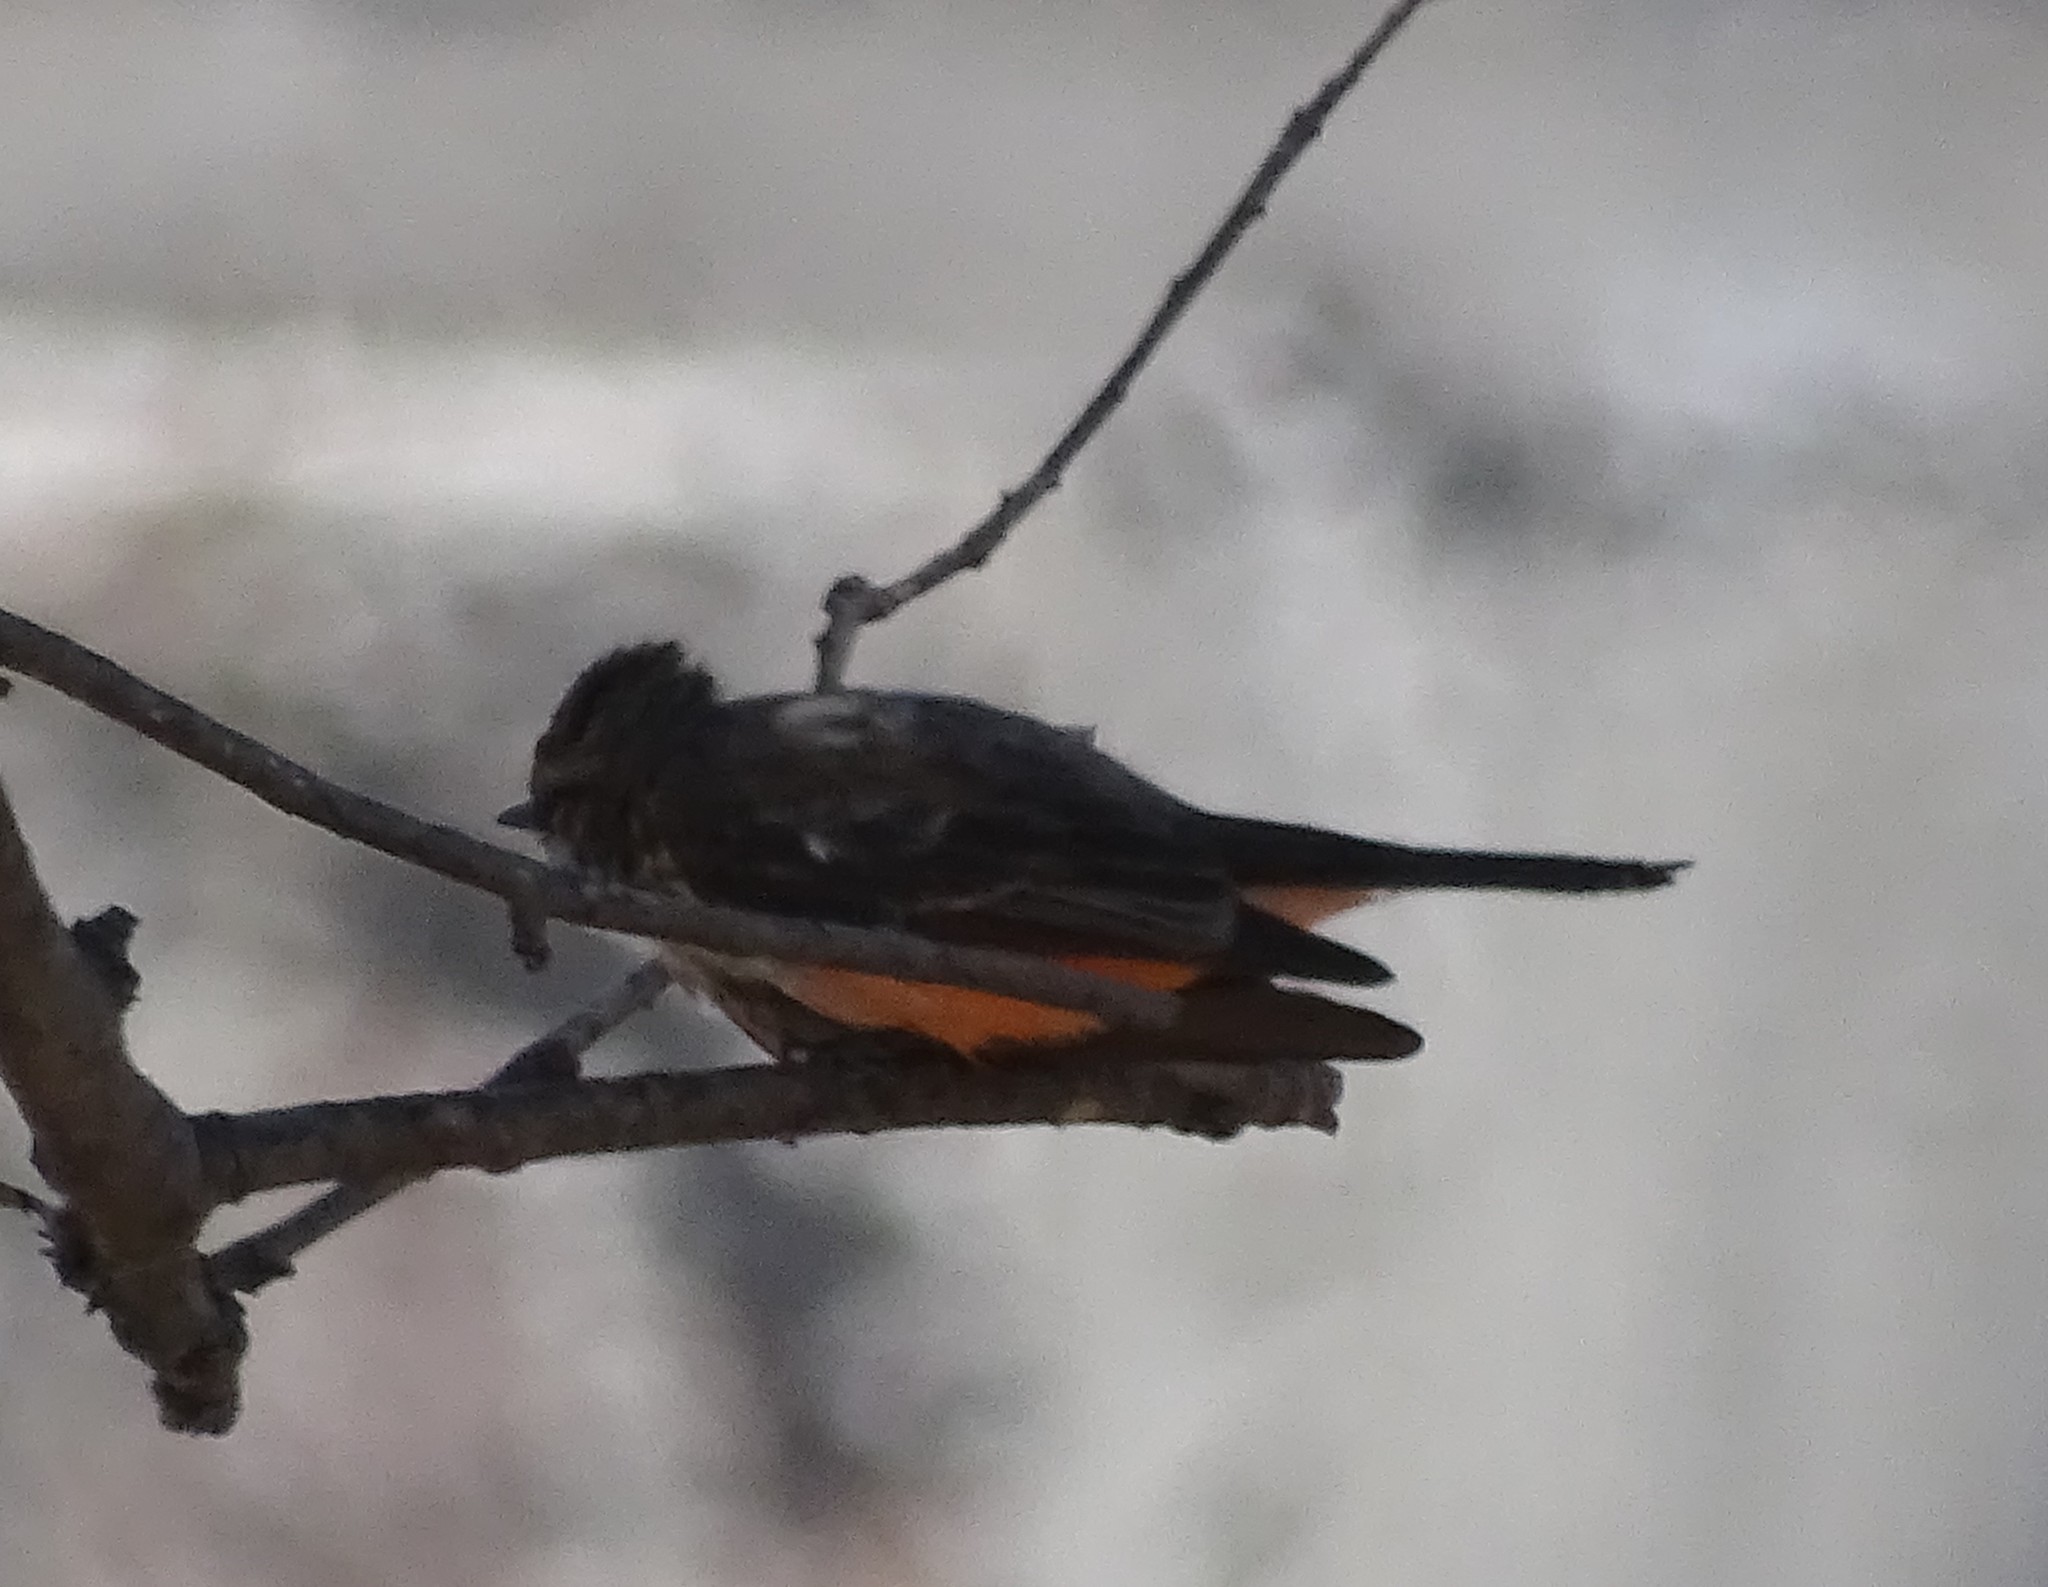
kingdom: Animalia
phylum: Chordata
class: Aves
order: Passeriformes
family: Tyrannidae
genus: Pyrocephalus
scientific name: Pyrocephalus rubinus
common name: Vermilion flycatcher
